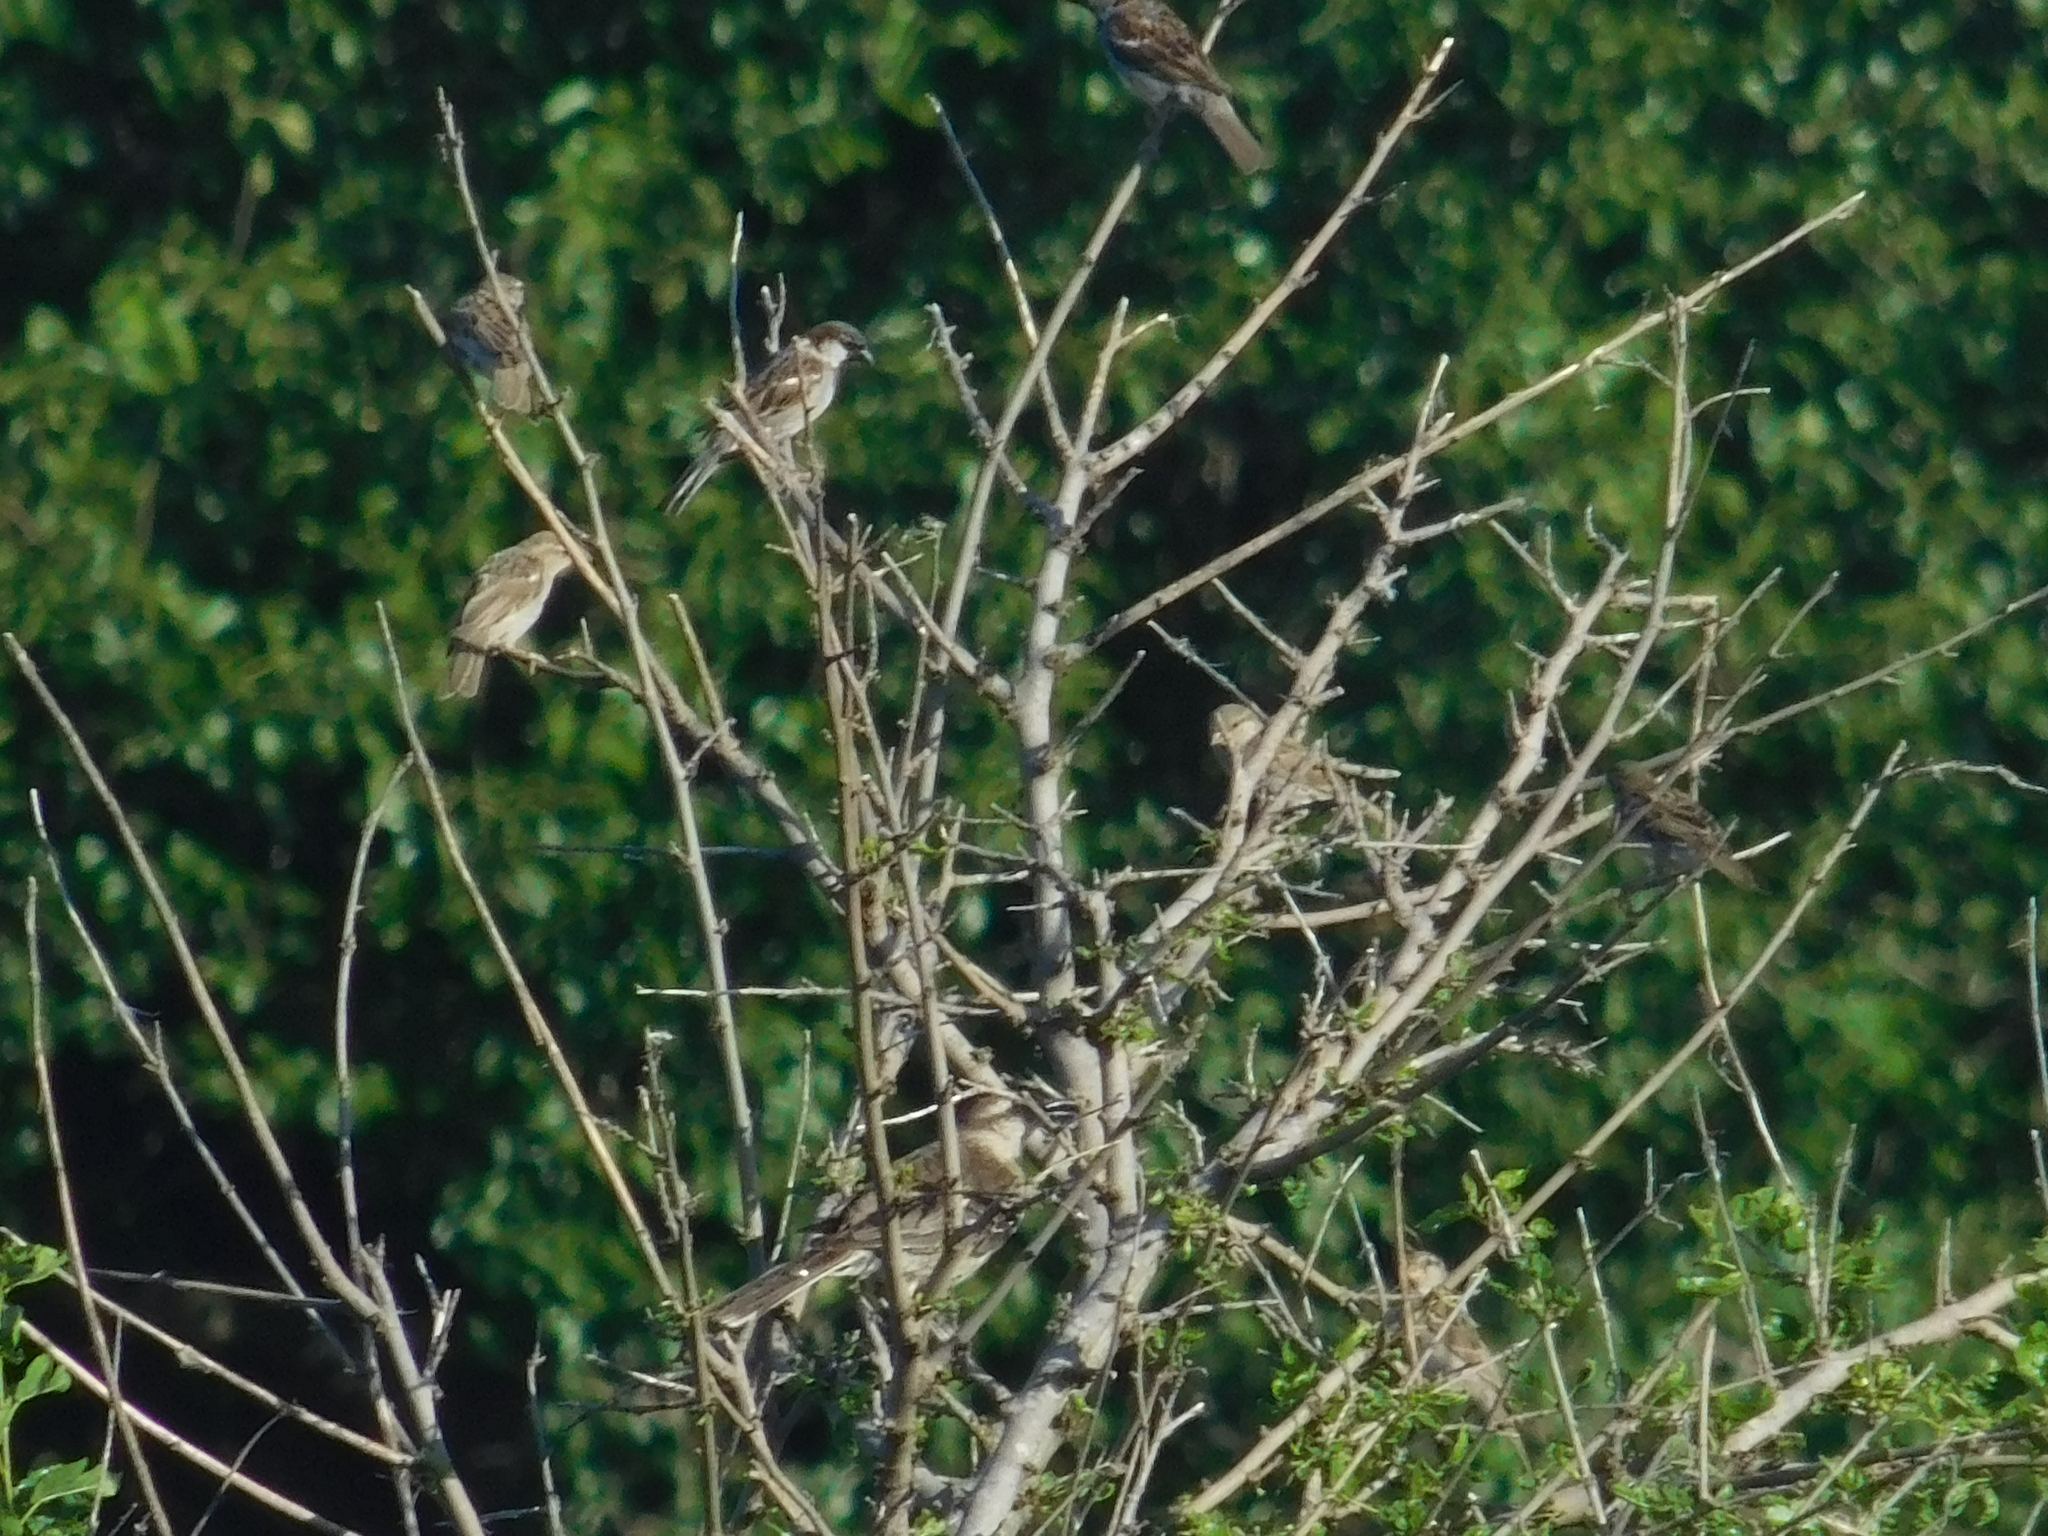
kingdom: Animalia
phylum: Chordata
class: Aves
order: Passeriformes
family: Passeridae
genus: Passer
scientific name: Passer domesticus
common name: House sparrow
